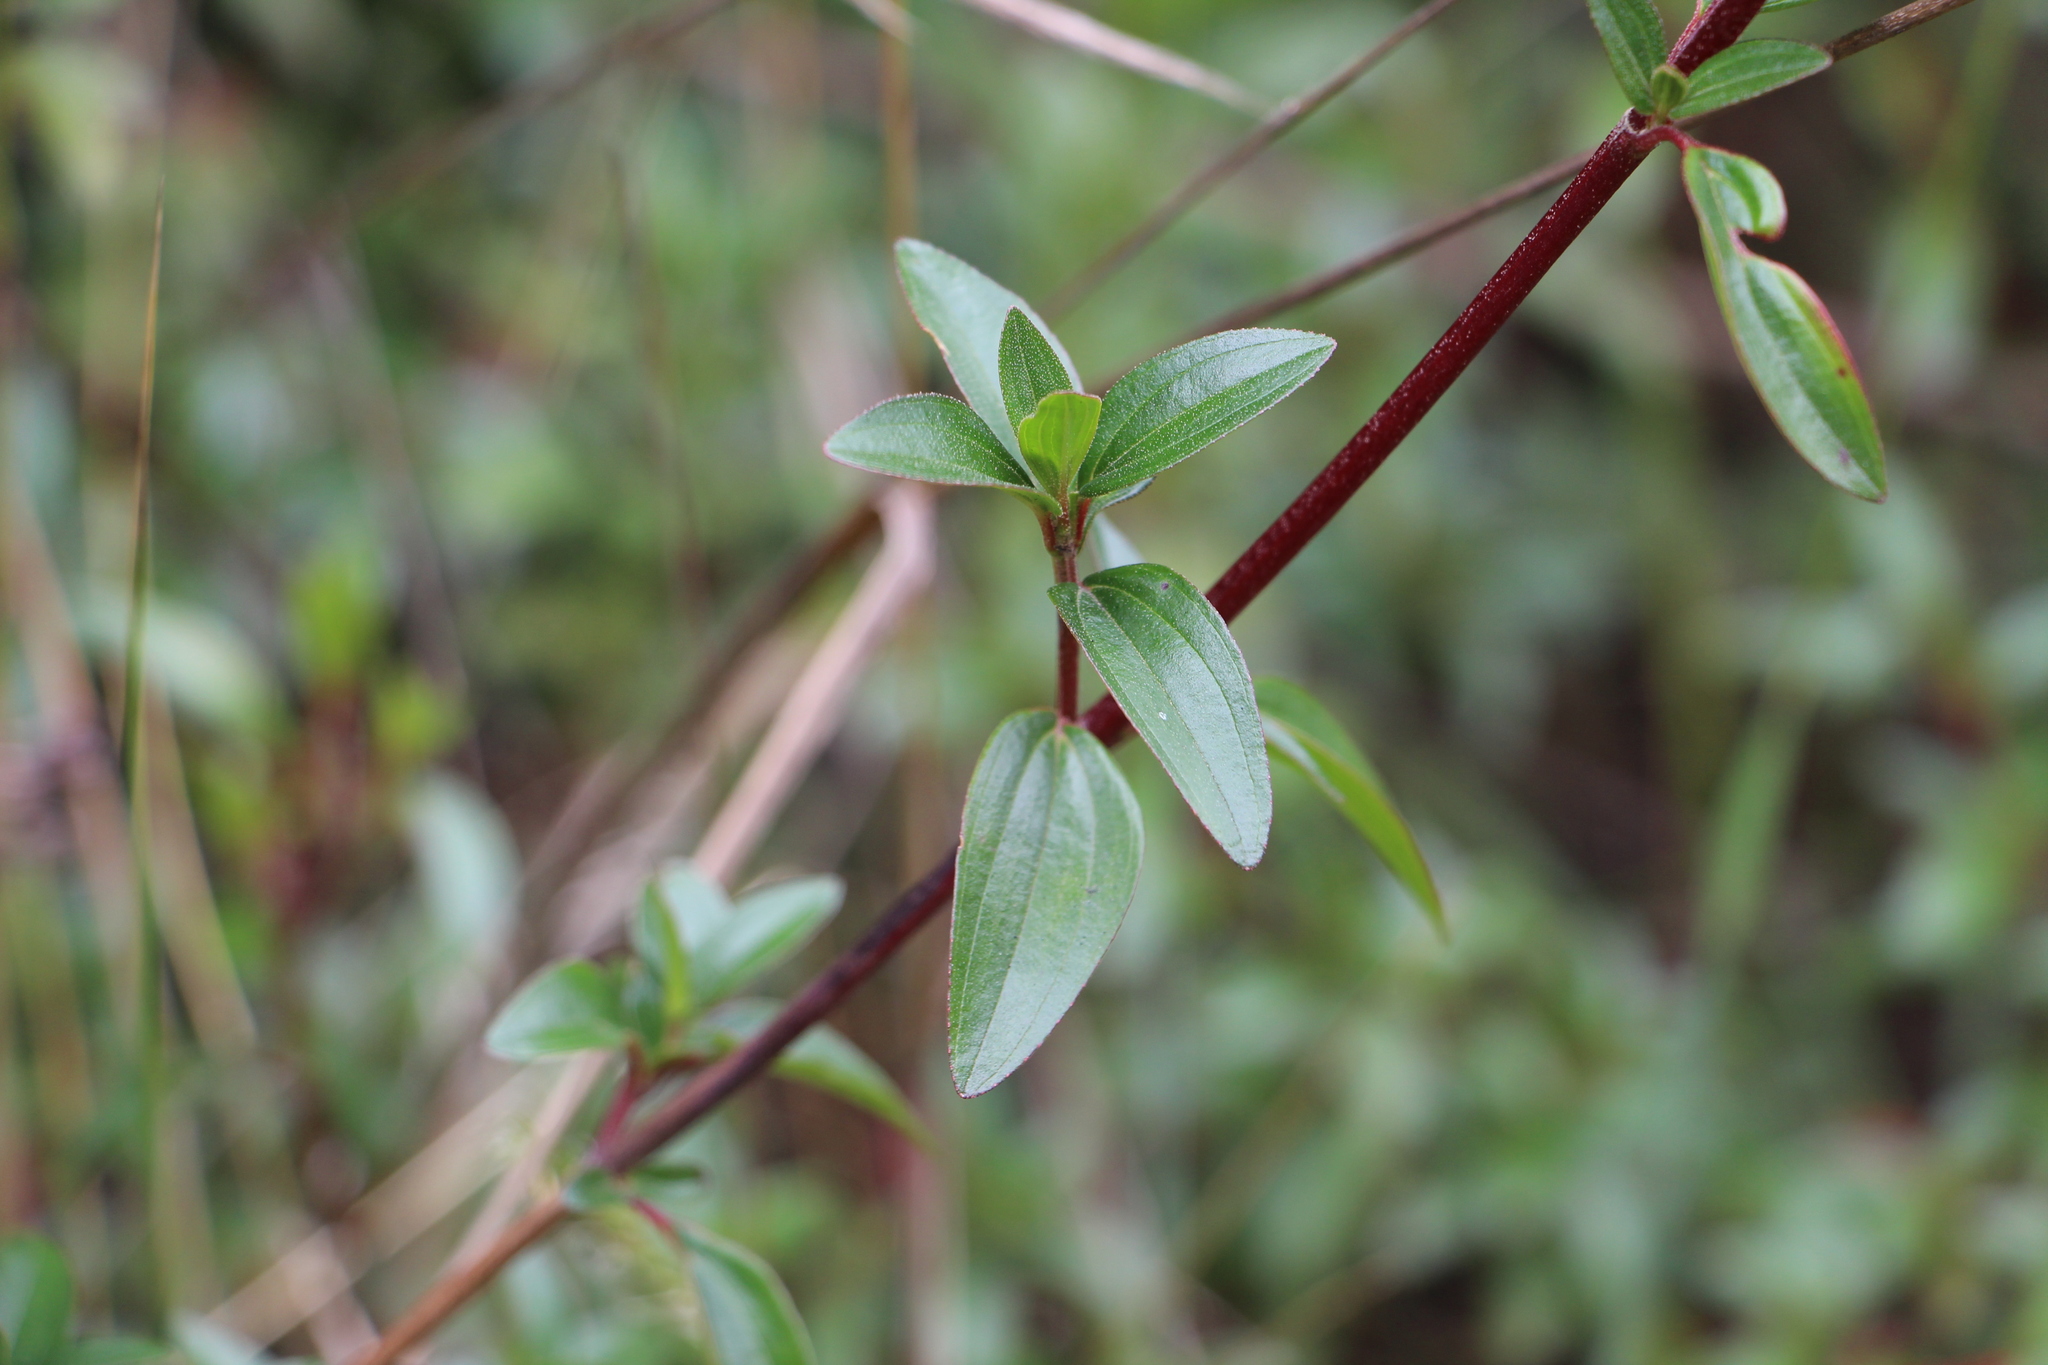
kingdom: Plantae
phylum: Tracheophyta
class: Magnoliopsida
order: Myrtales
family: Melastomataceae
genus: Monochaetum
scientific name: Monochaetum myrtoideum
